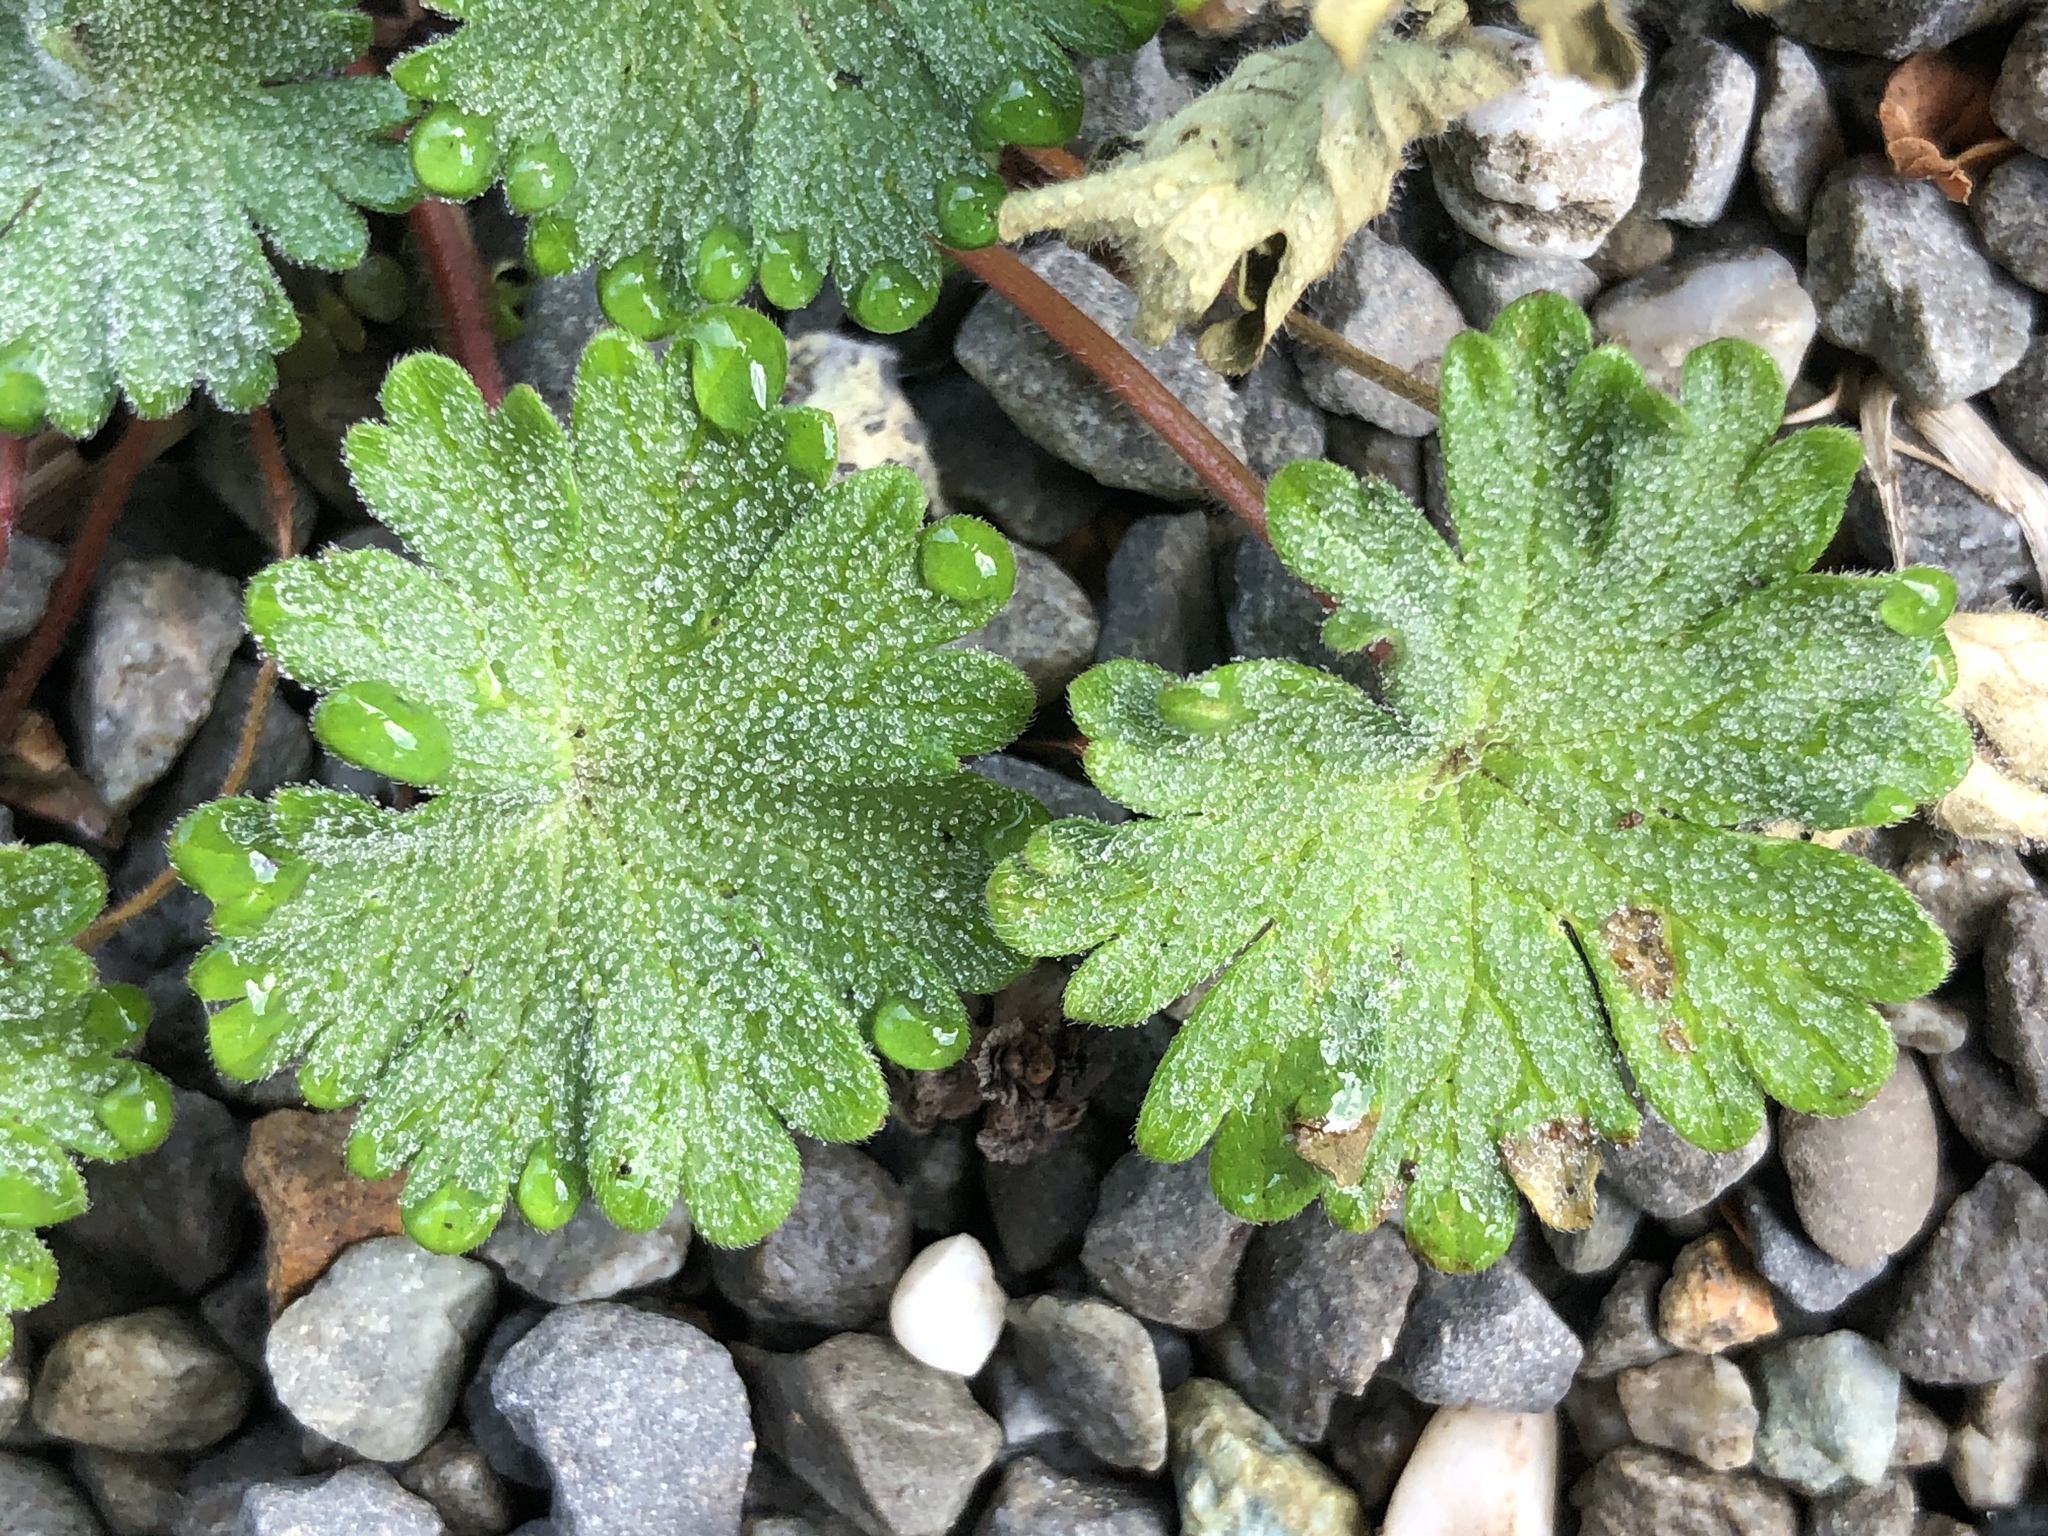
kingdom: Plantae
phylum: Tracheophyta
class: Magnoliopsida
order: Geraniales
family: Geraniaceae
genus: Geranium
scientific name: Geranium molle
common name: Dove's-foot crane's-bill
